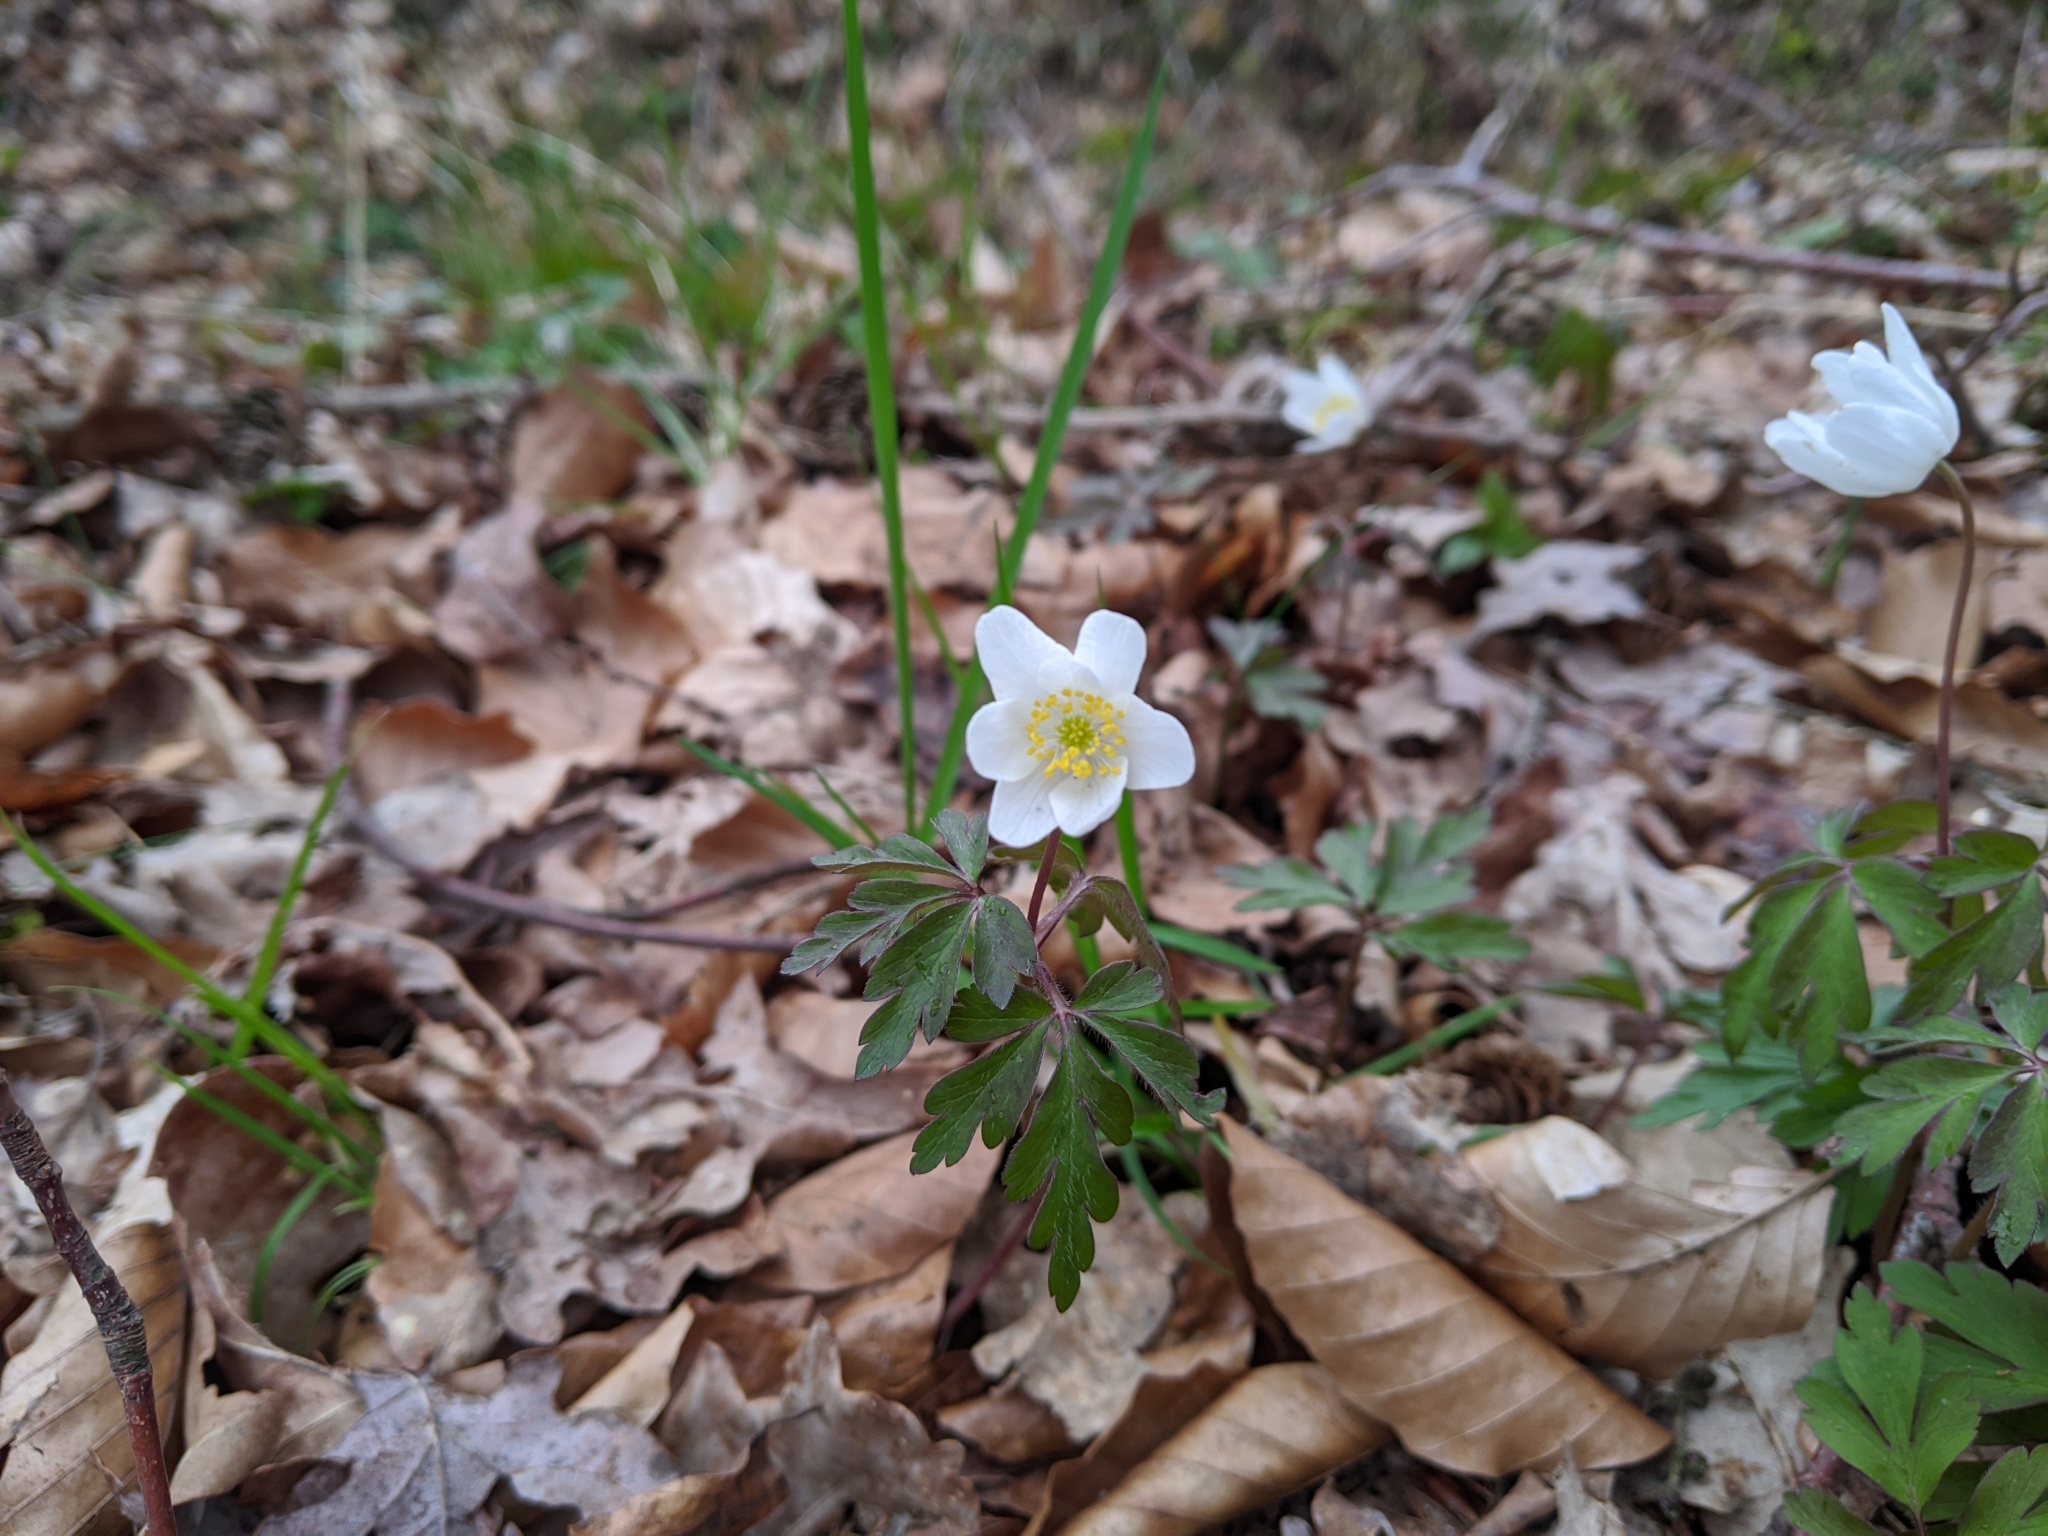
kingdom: Plantae
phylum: Tracheophyta
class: Magnoliopsida
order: Ranunculales
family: Ranunculaceae
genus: Anemone
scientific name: Anemone nemorosa
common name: Wood anemone
